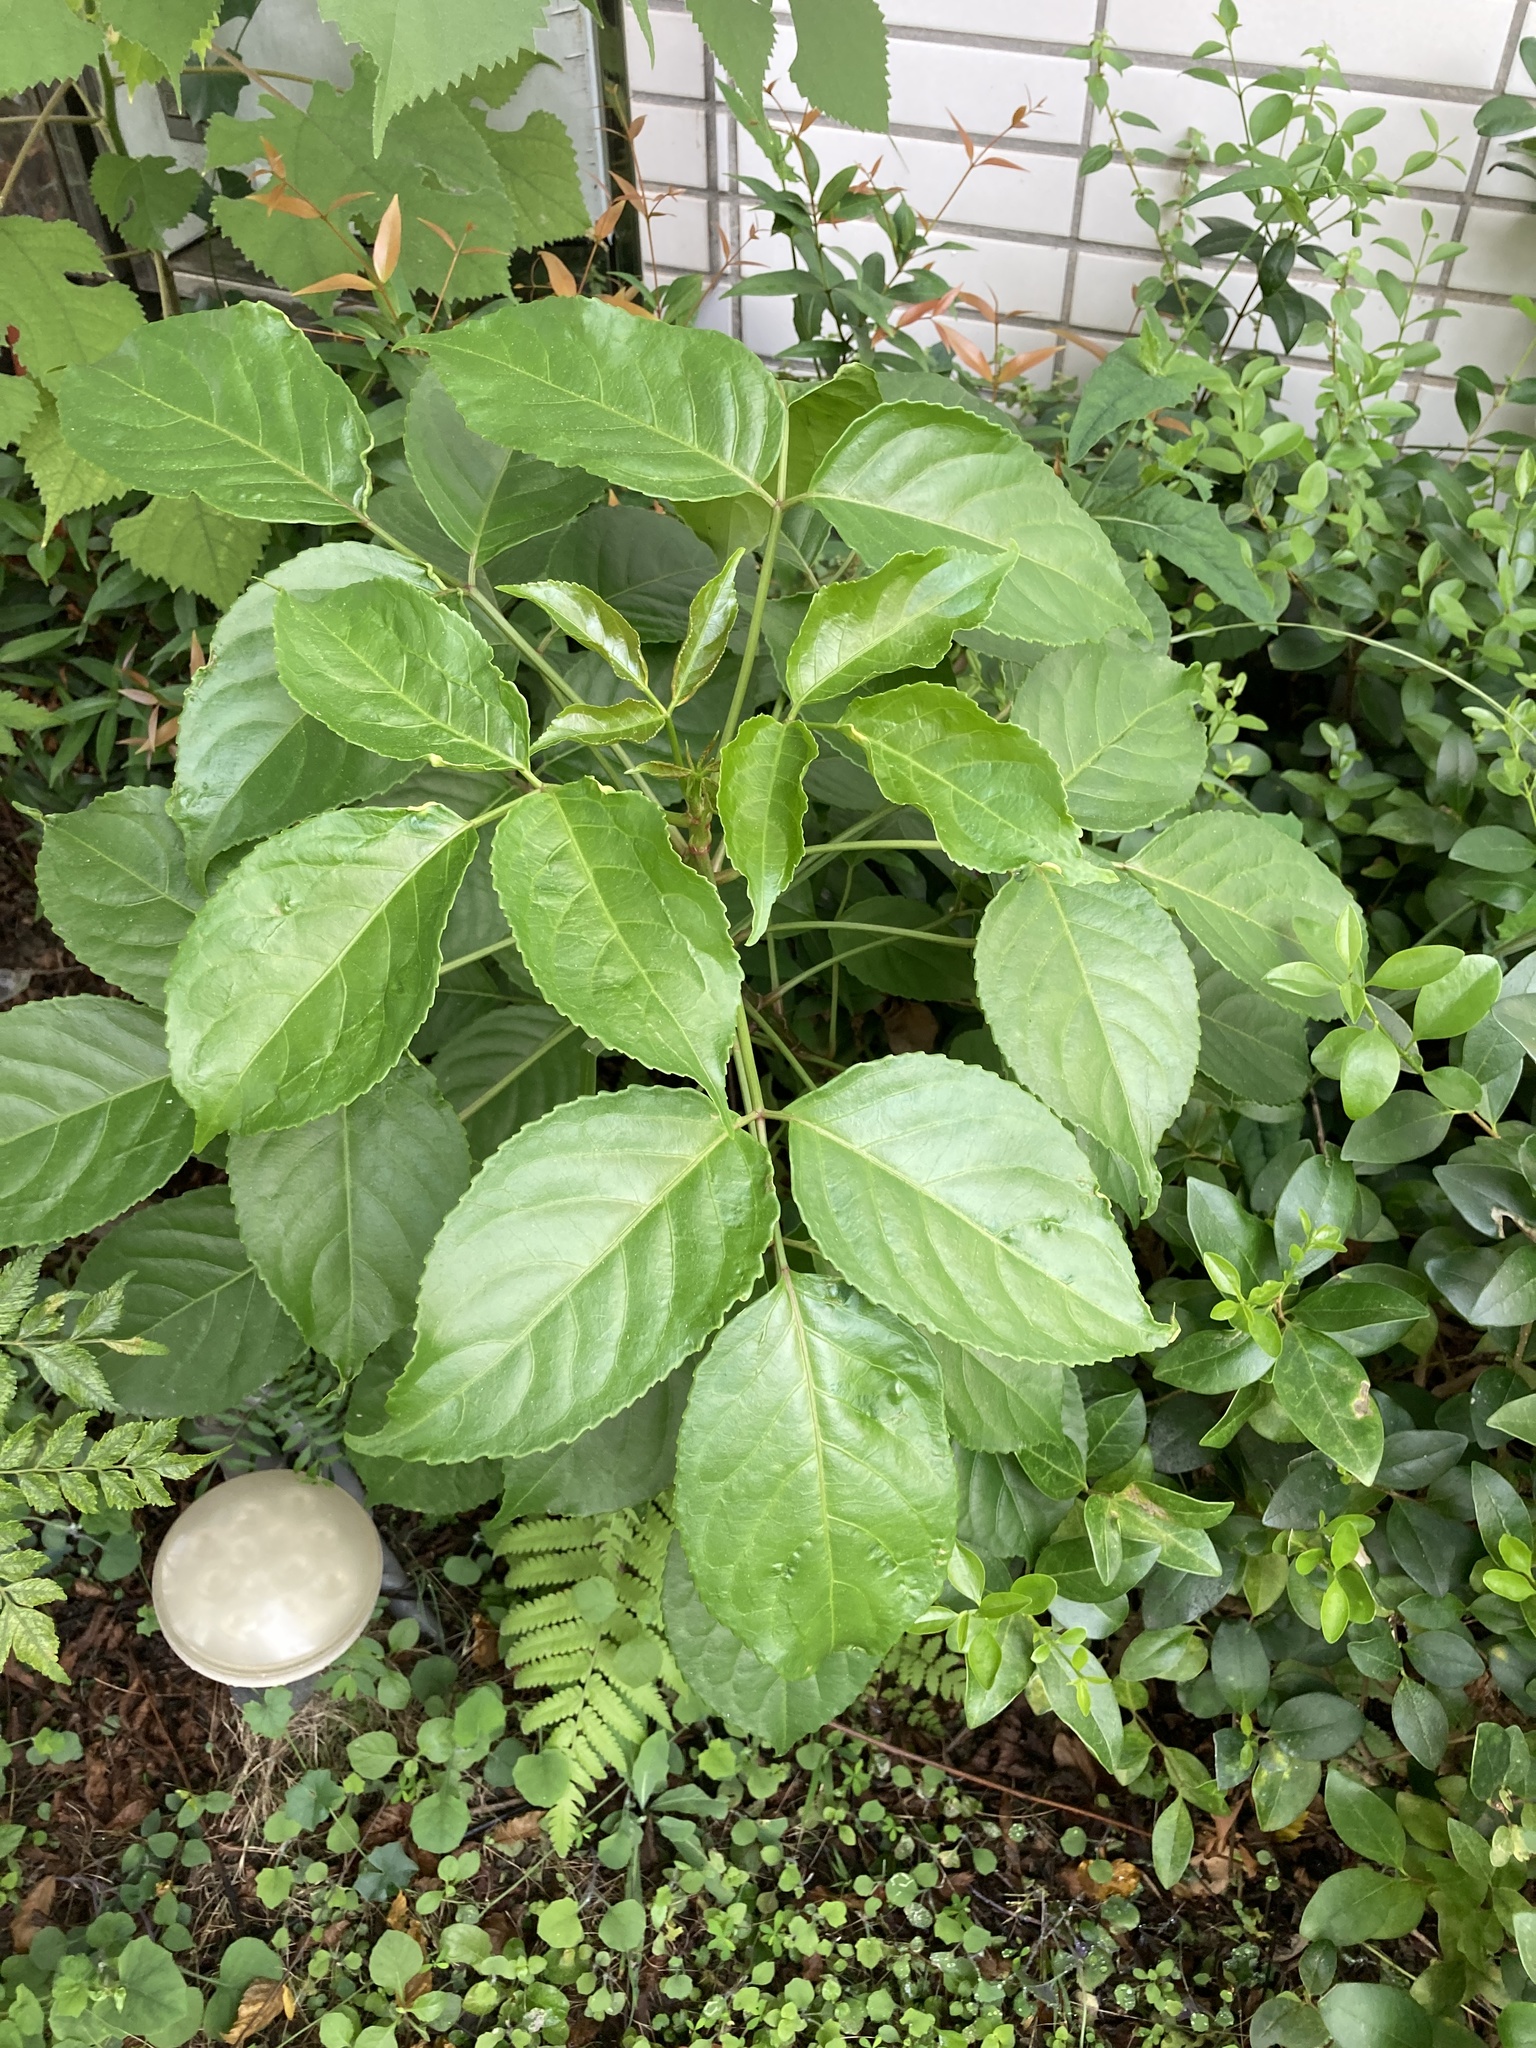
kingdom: Plantae
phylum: Tracheophyta
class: Magnoliopsida
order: Malpighiales
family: Phyllanthaceae
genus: Bischofia
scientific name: Bischofia javanica
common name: Javanese bishopwood
